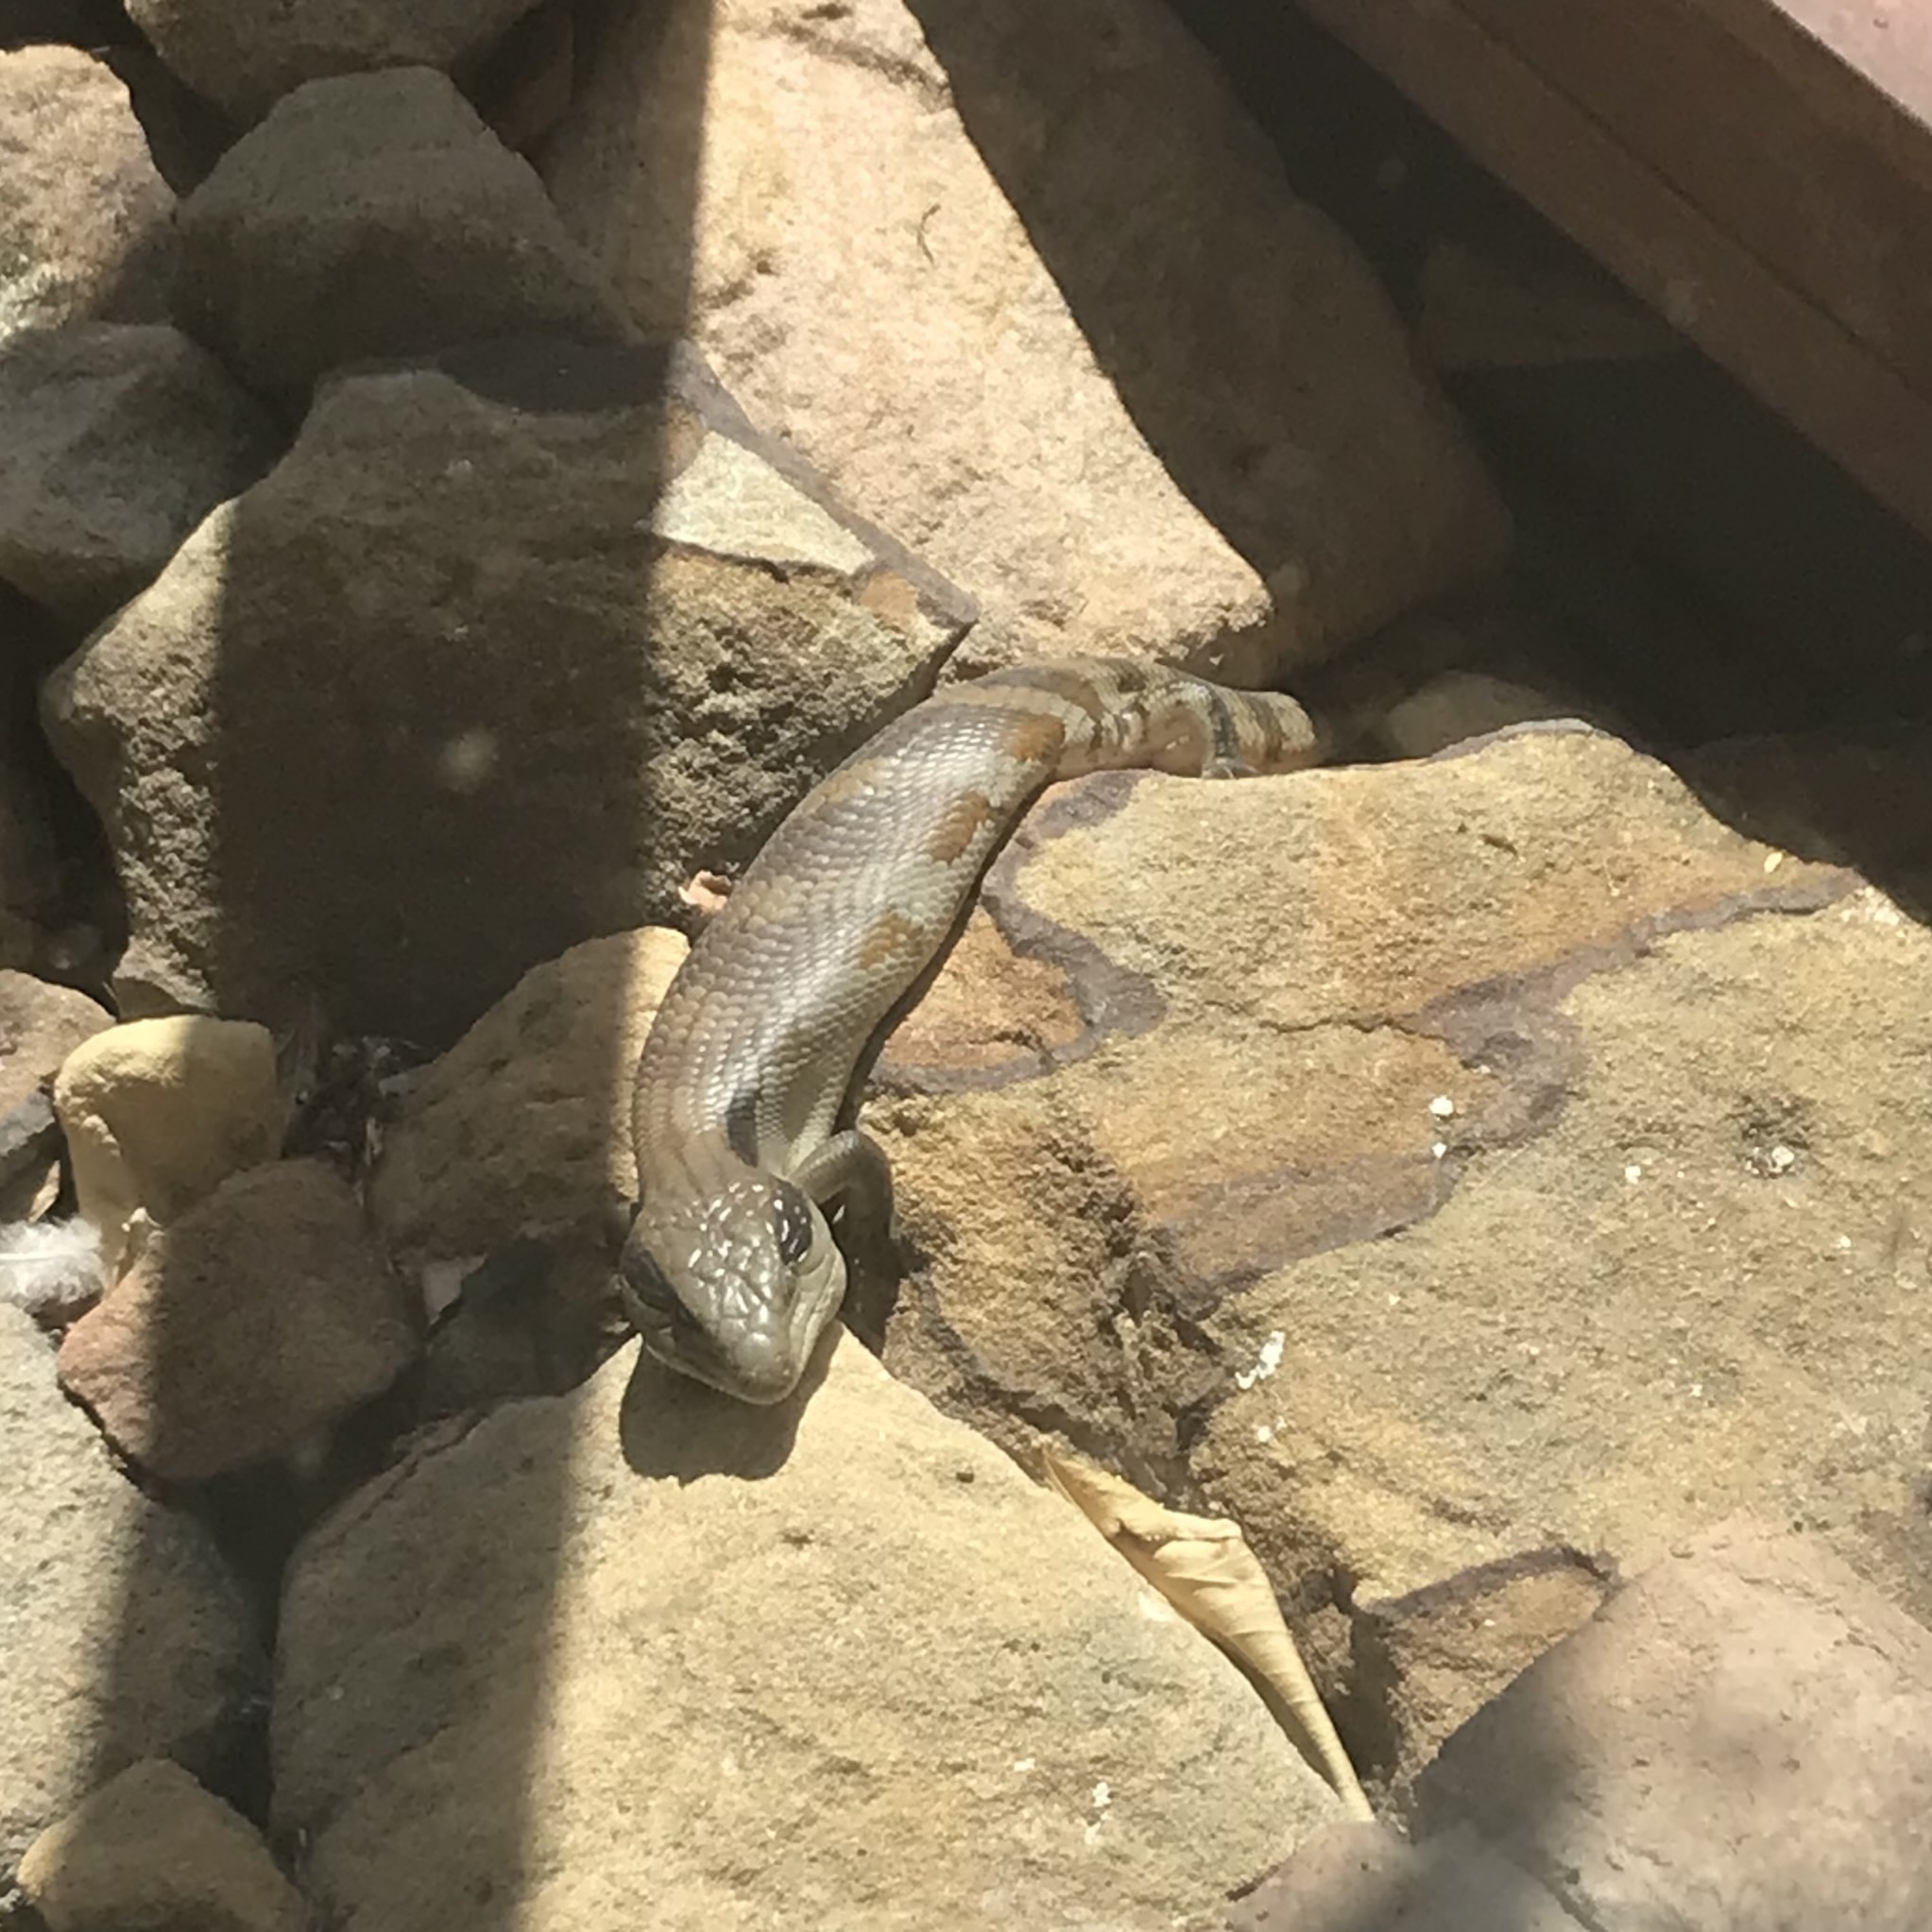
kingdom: Animalia
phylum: Chordata
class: Squamata
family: Scincidae
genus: Tiliqua
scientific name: Tiliqua scincoides
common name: Common bluetongue
